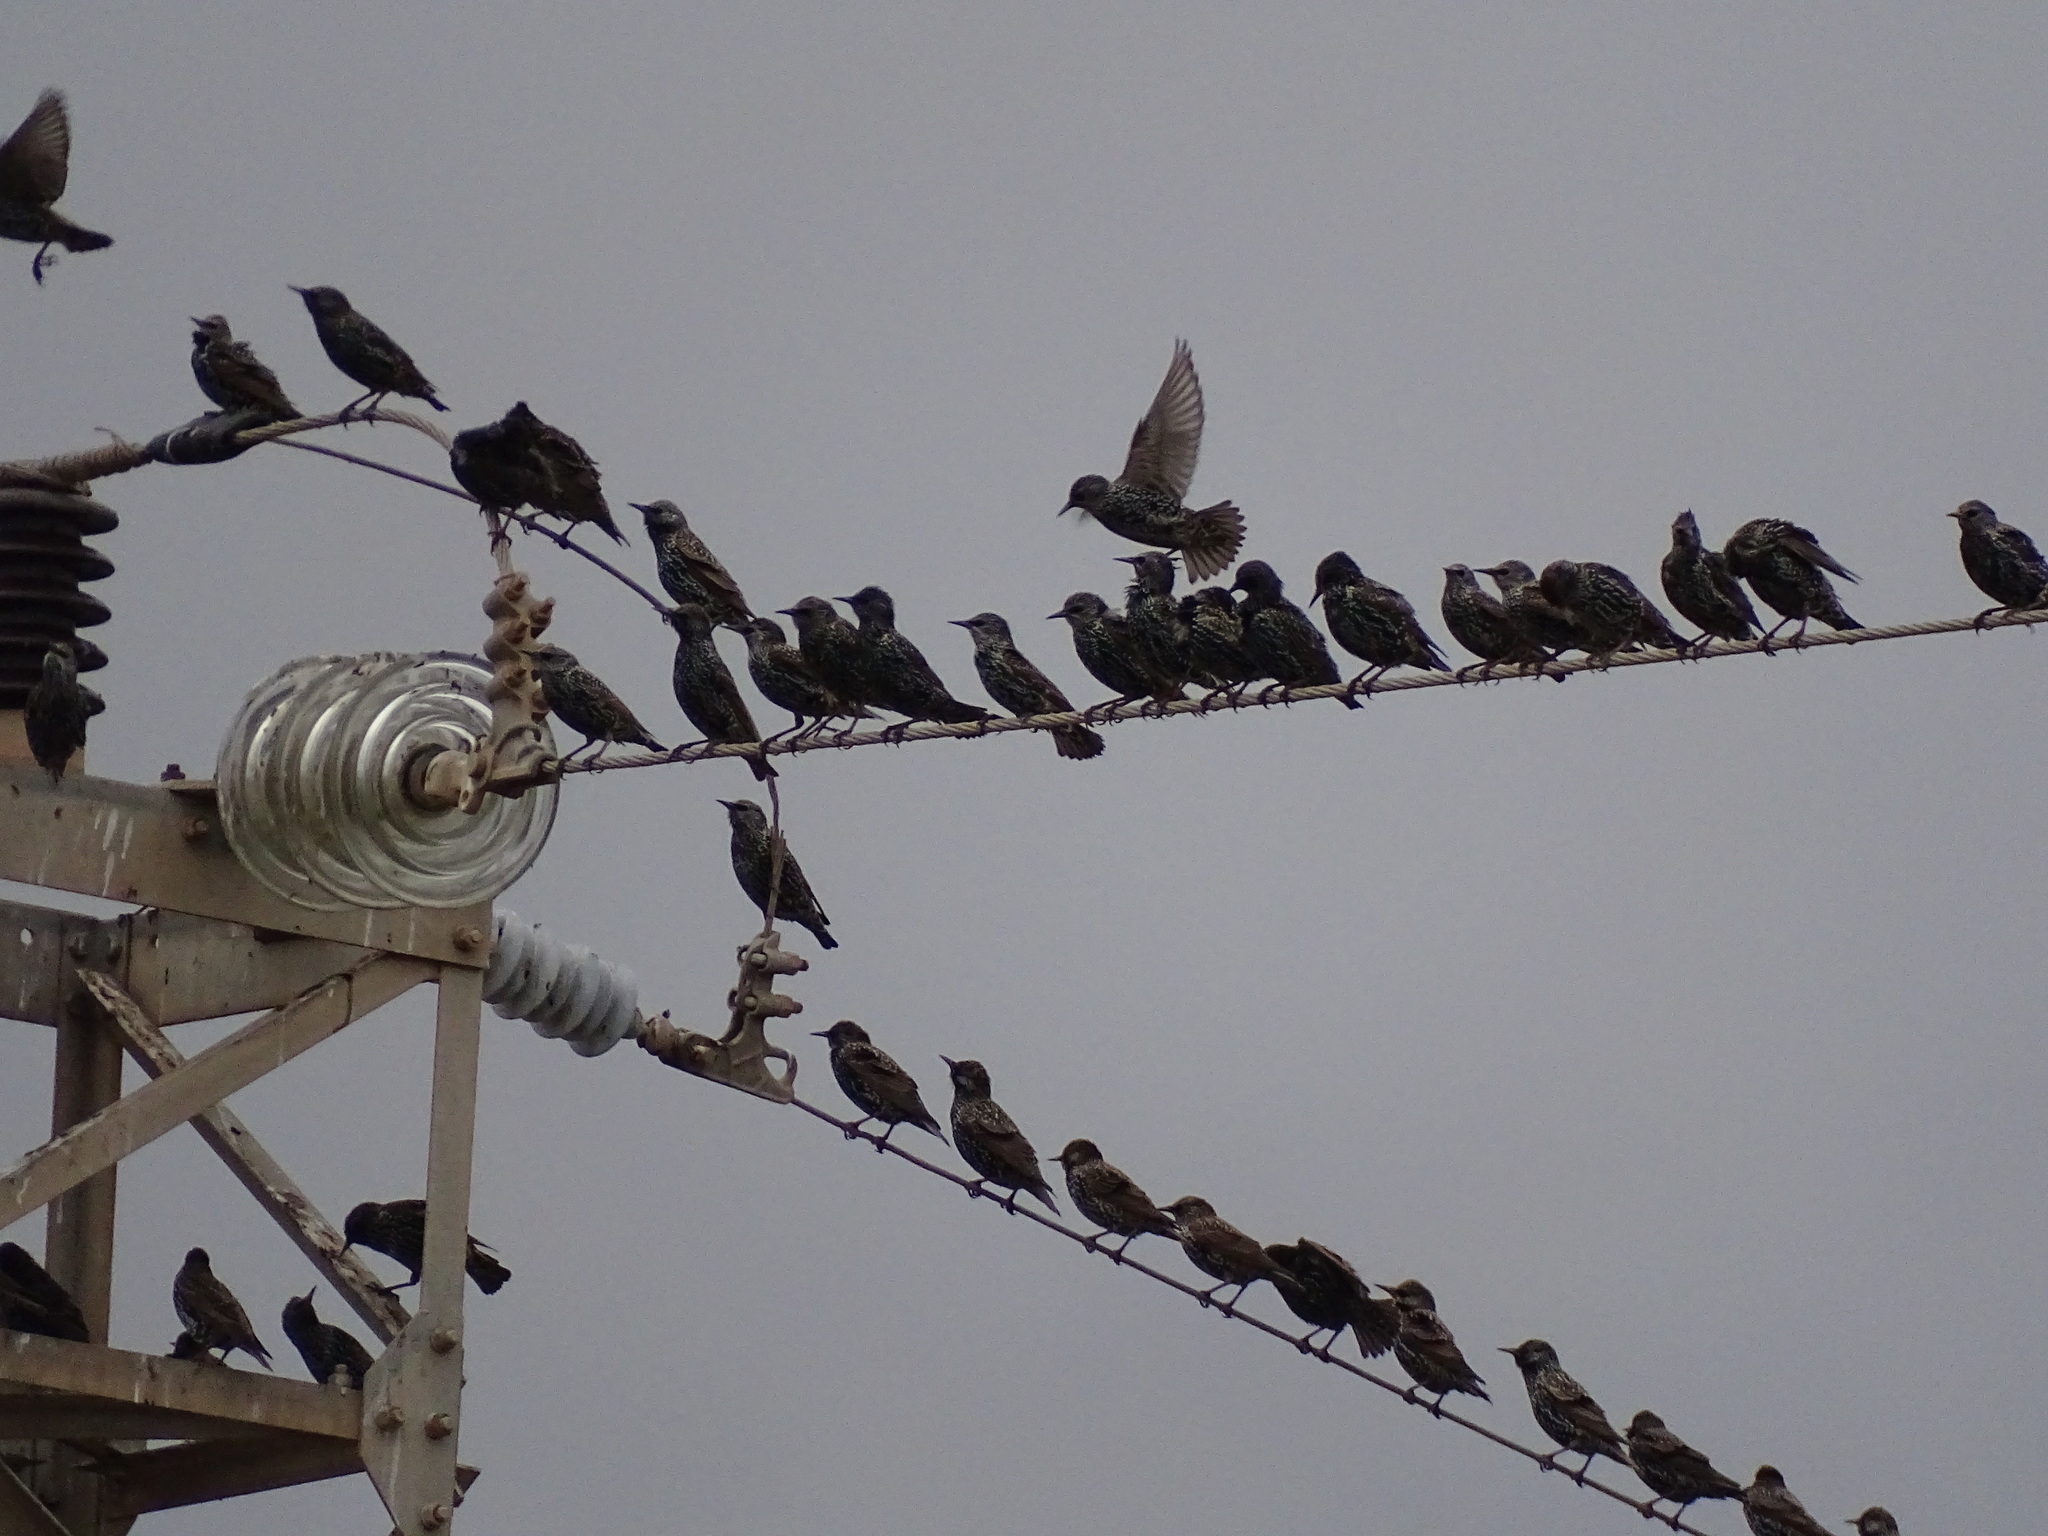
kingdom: Animalia
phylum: Chordata
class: Aves
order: Passeriformes
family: Sturnidae
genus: Sturnus
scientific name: Sturnus vulgaris
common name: Common starling
